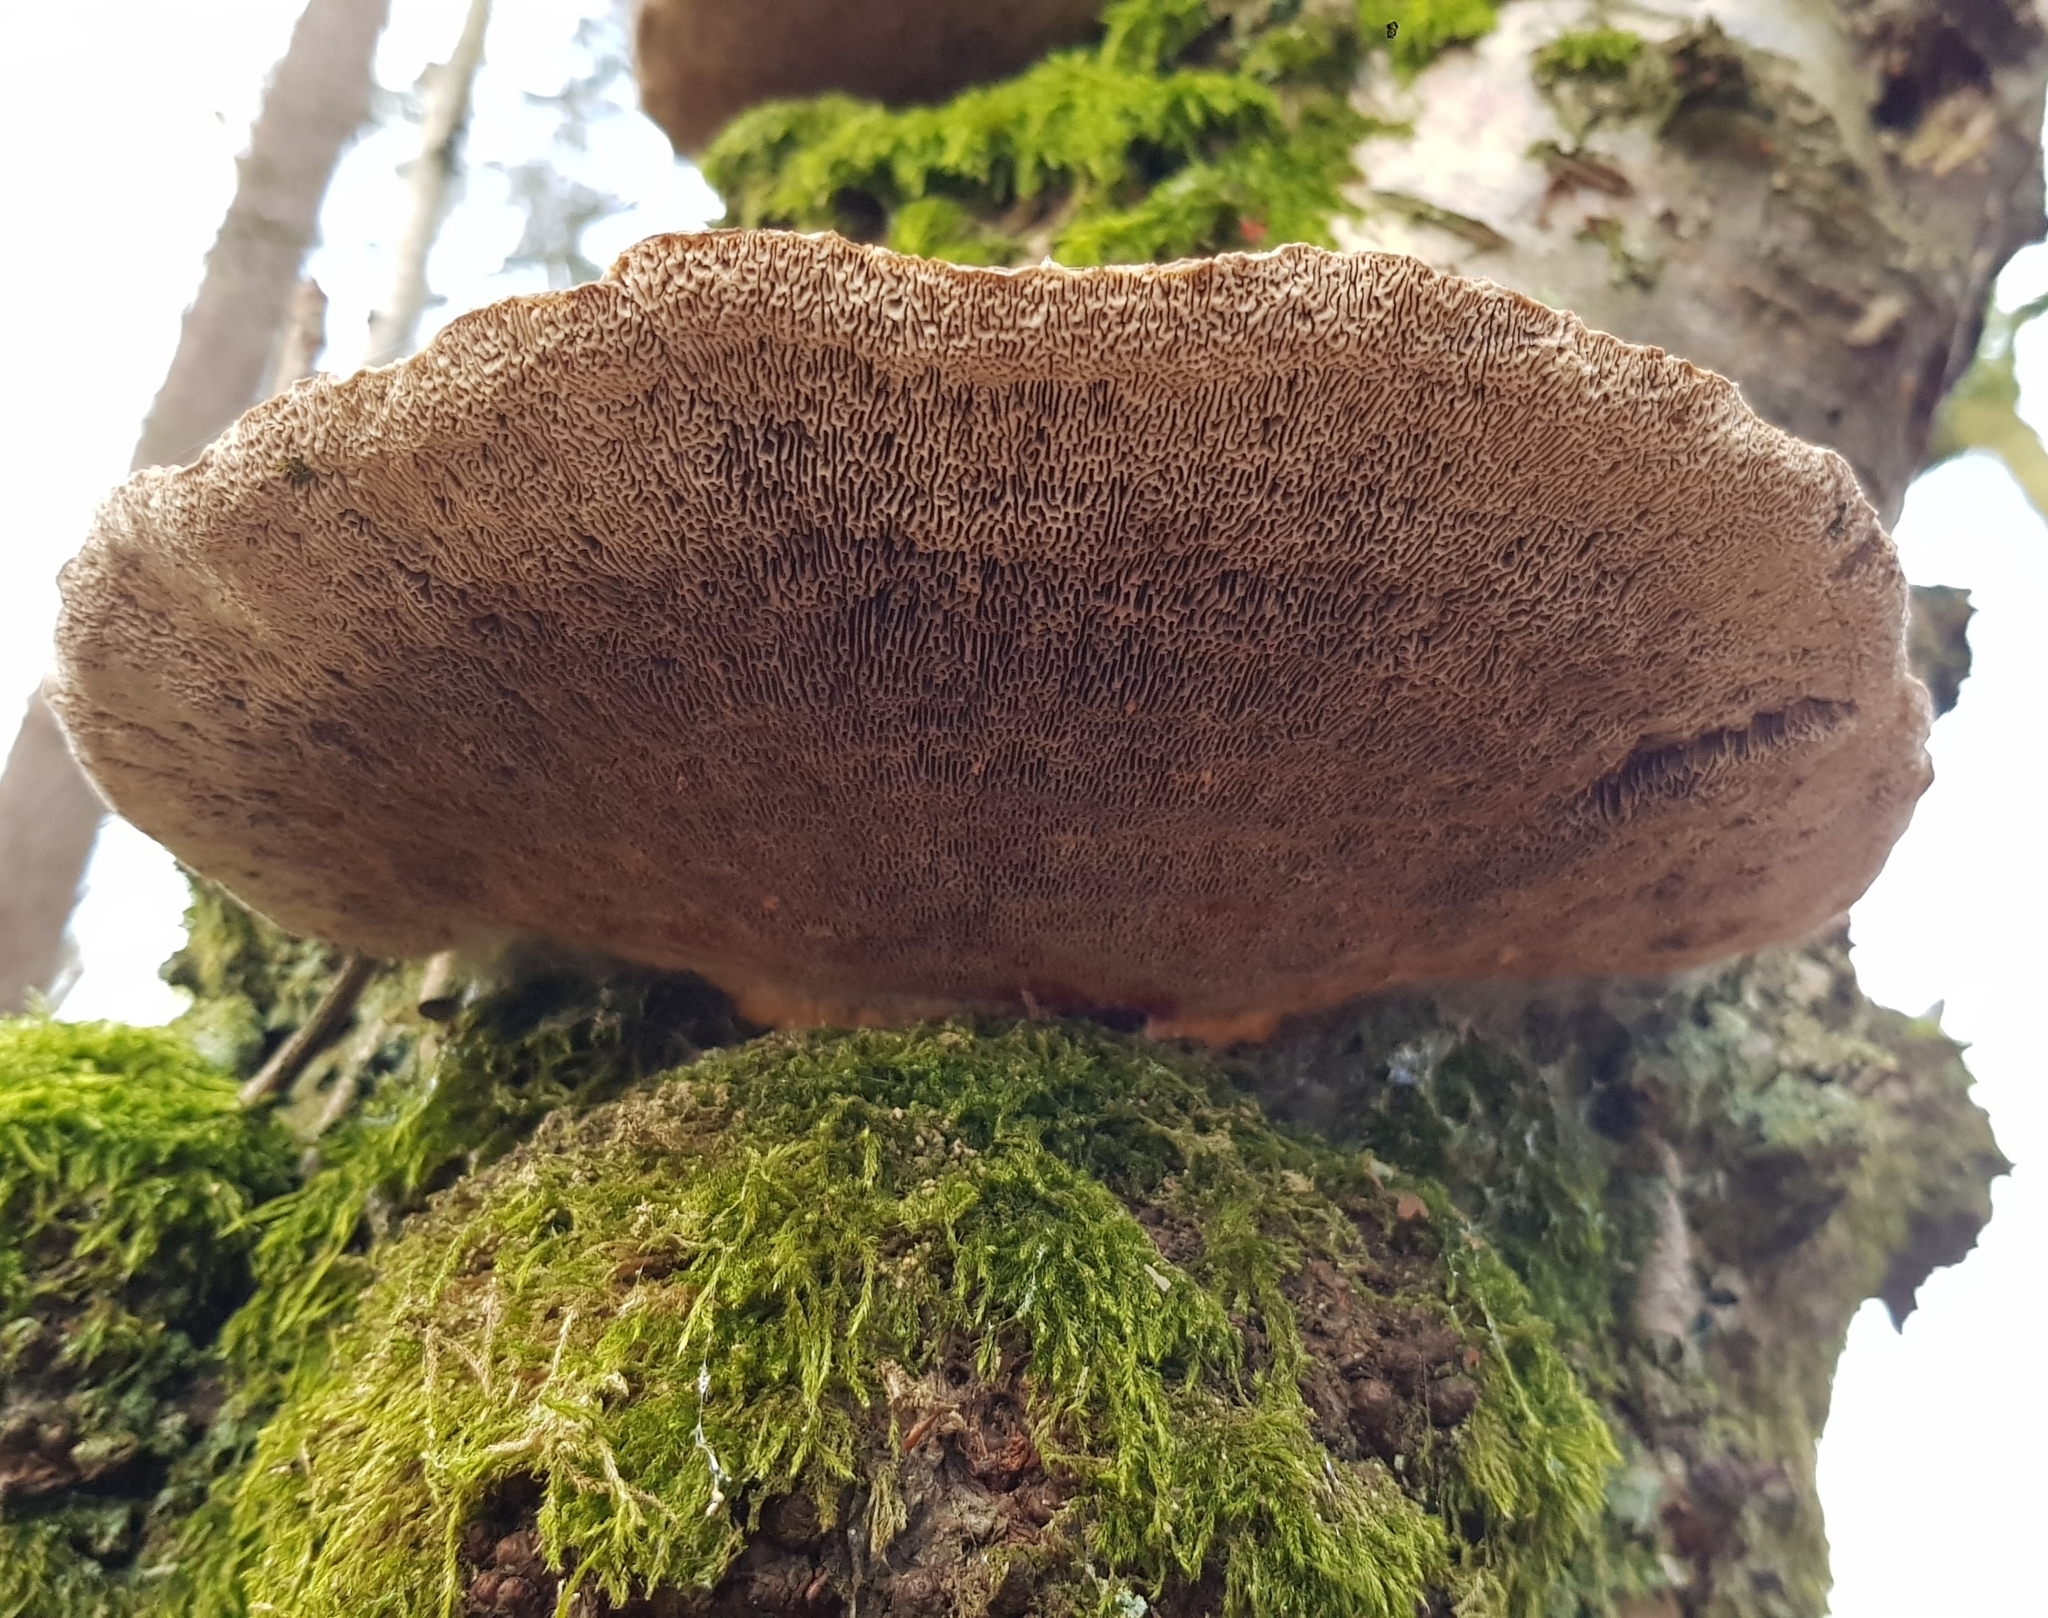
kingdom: Fungi
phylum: Basidiomycota
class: Agaricomycetes
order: Polyporales
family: Polyporaceae
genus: Daedaleopsis
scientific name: Daedaleopsis confragosa
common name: Blushing bracket
